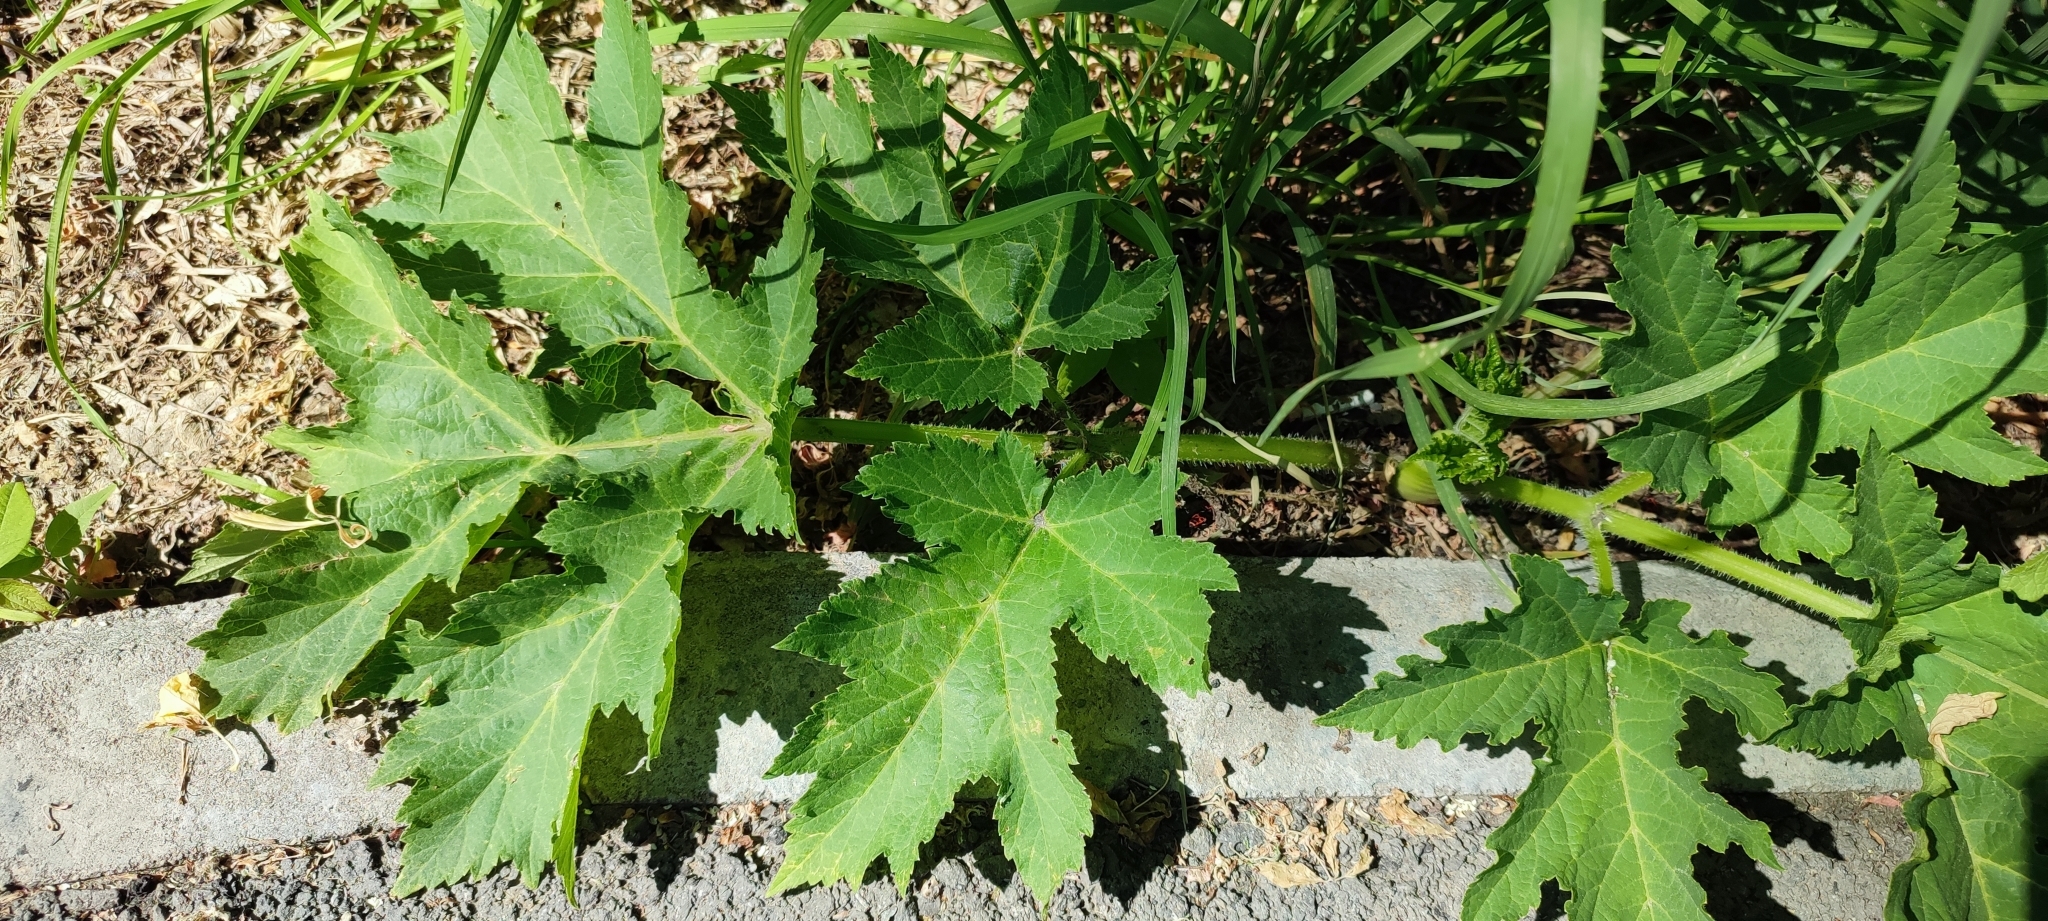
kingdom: Plantae
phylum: Tracheophyta
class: Magnoliopsida
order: Apiales
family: Apiaceae
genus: Heracleum
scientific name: Heracleum sphondylium
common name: Hogweed
